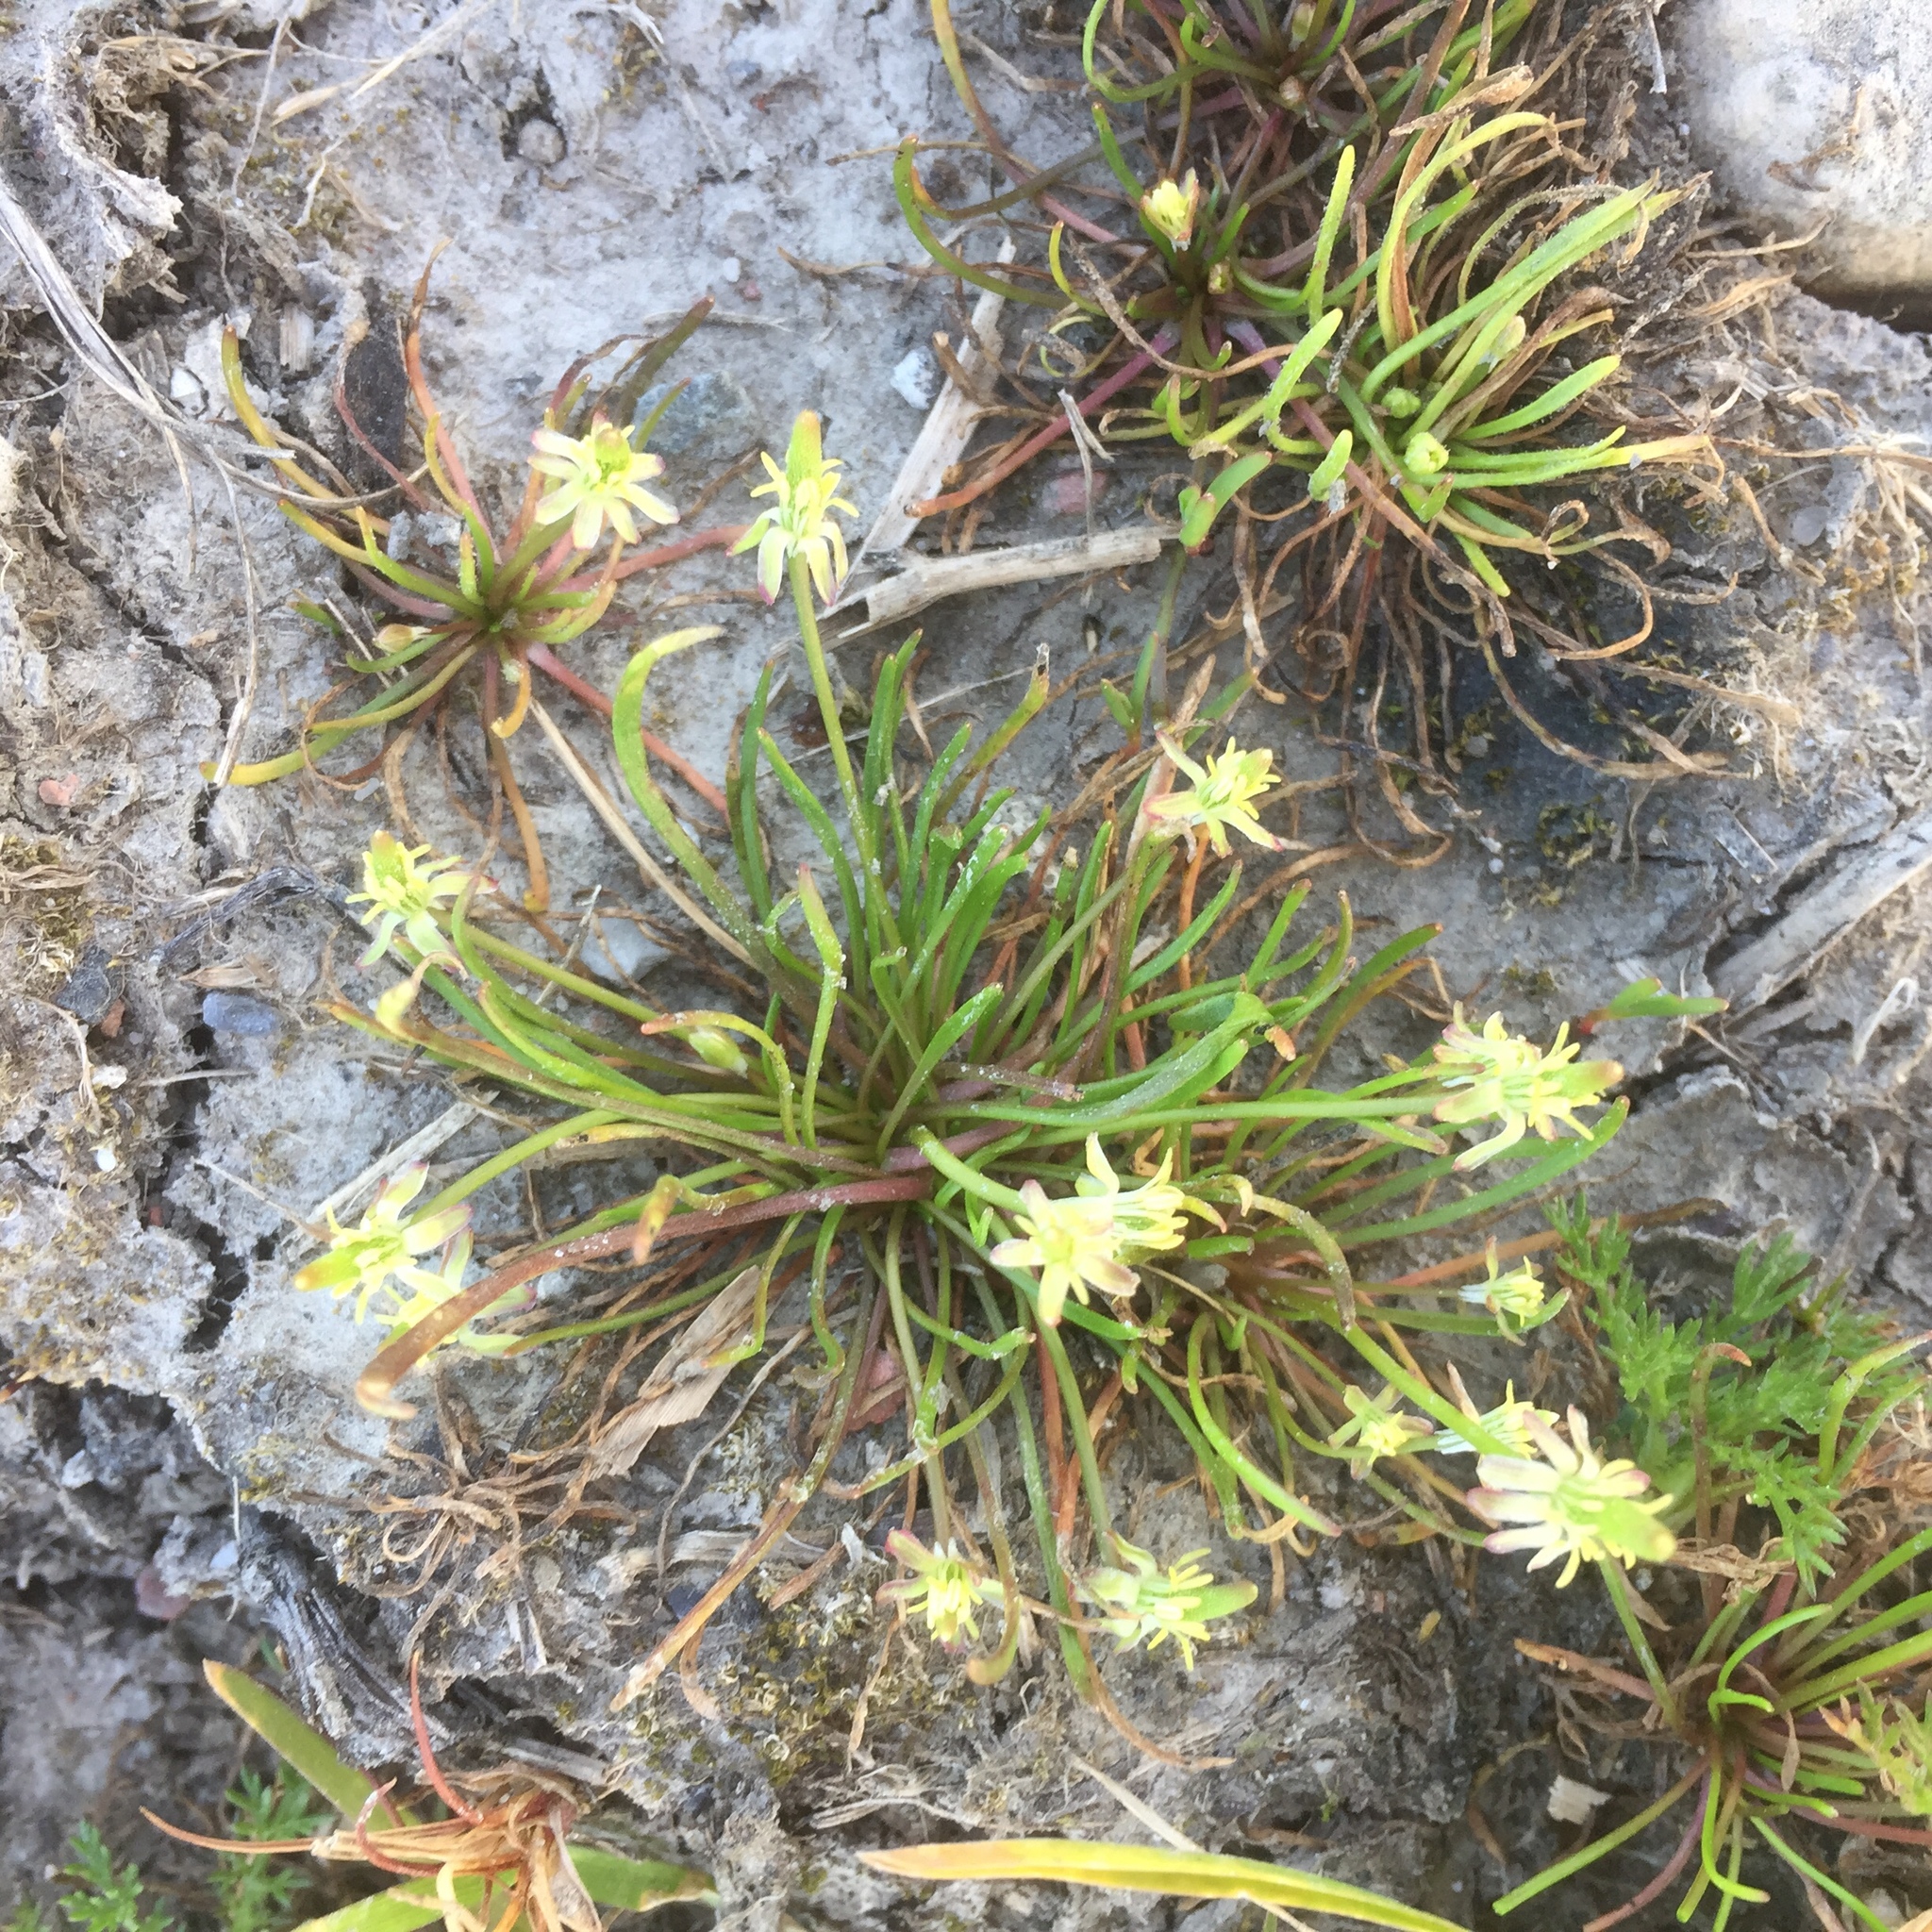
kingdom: Plantae
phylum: Tracheophyta
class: Magnoliopsida
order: Ranunculales
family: Ranunculaceae
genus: Myosurus
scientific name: Myosurus minimus
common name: Mousetail
